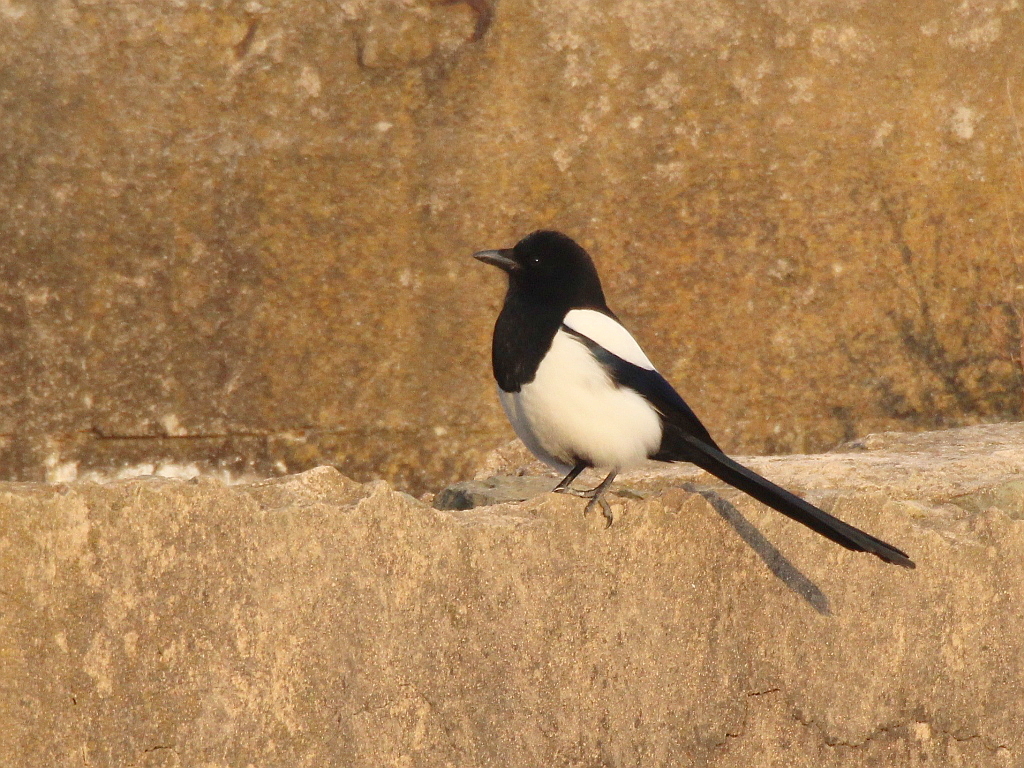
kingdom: Animalia
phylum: Chordata
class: Aves
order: Passeriformes
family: Corvidae
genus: Pica
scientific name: Pica serica
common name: Oriental magpie
